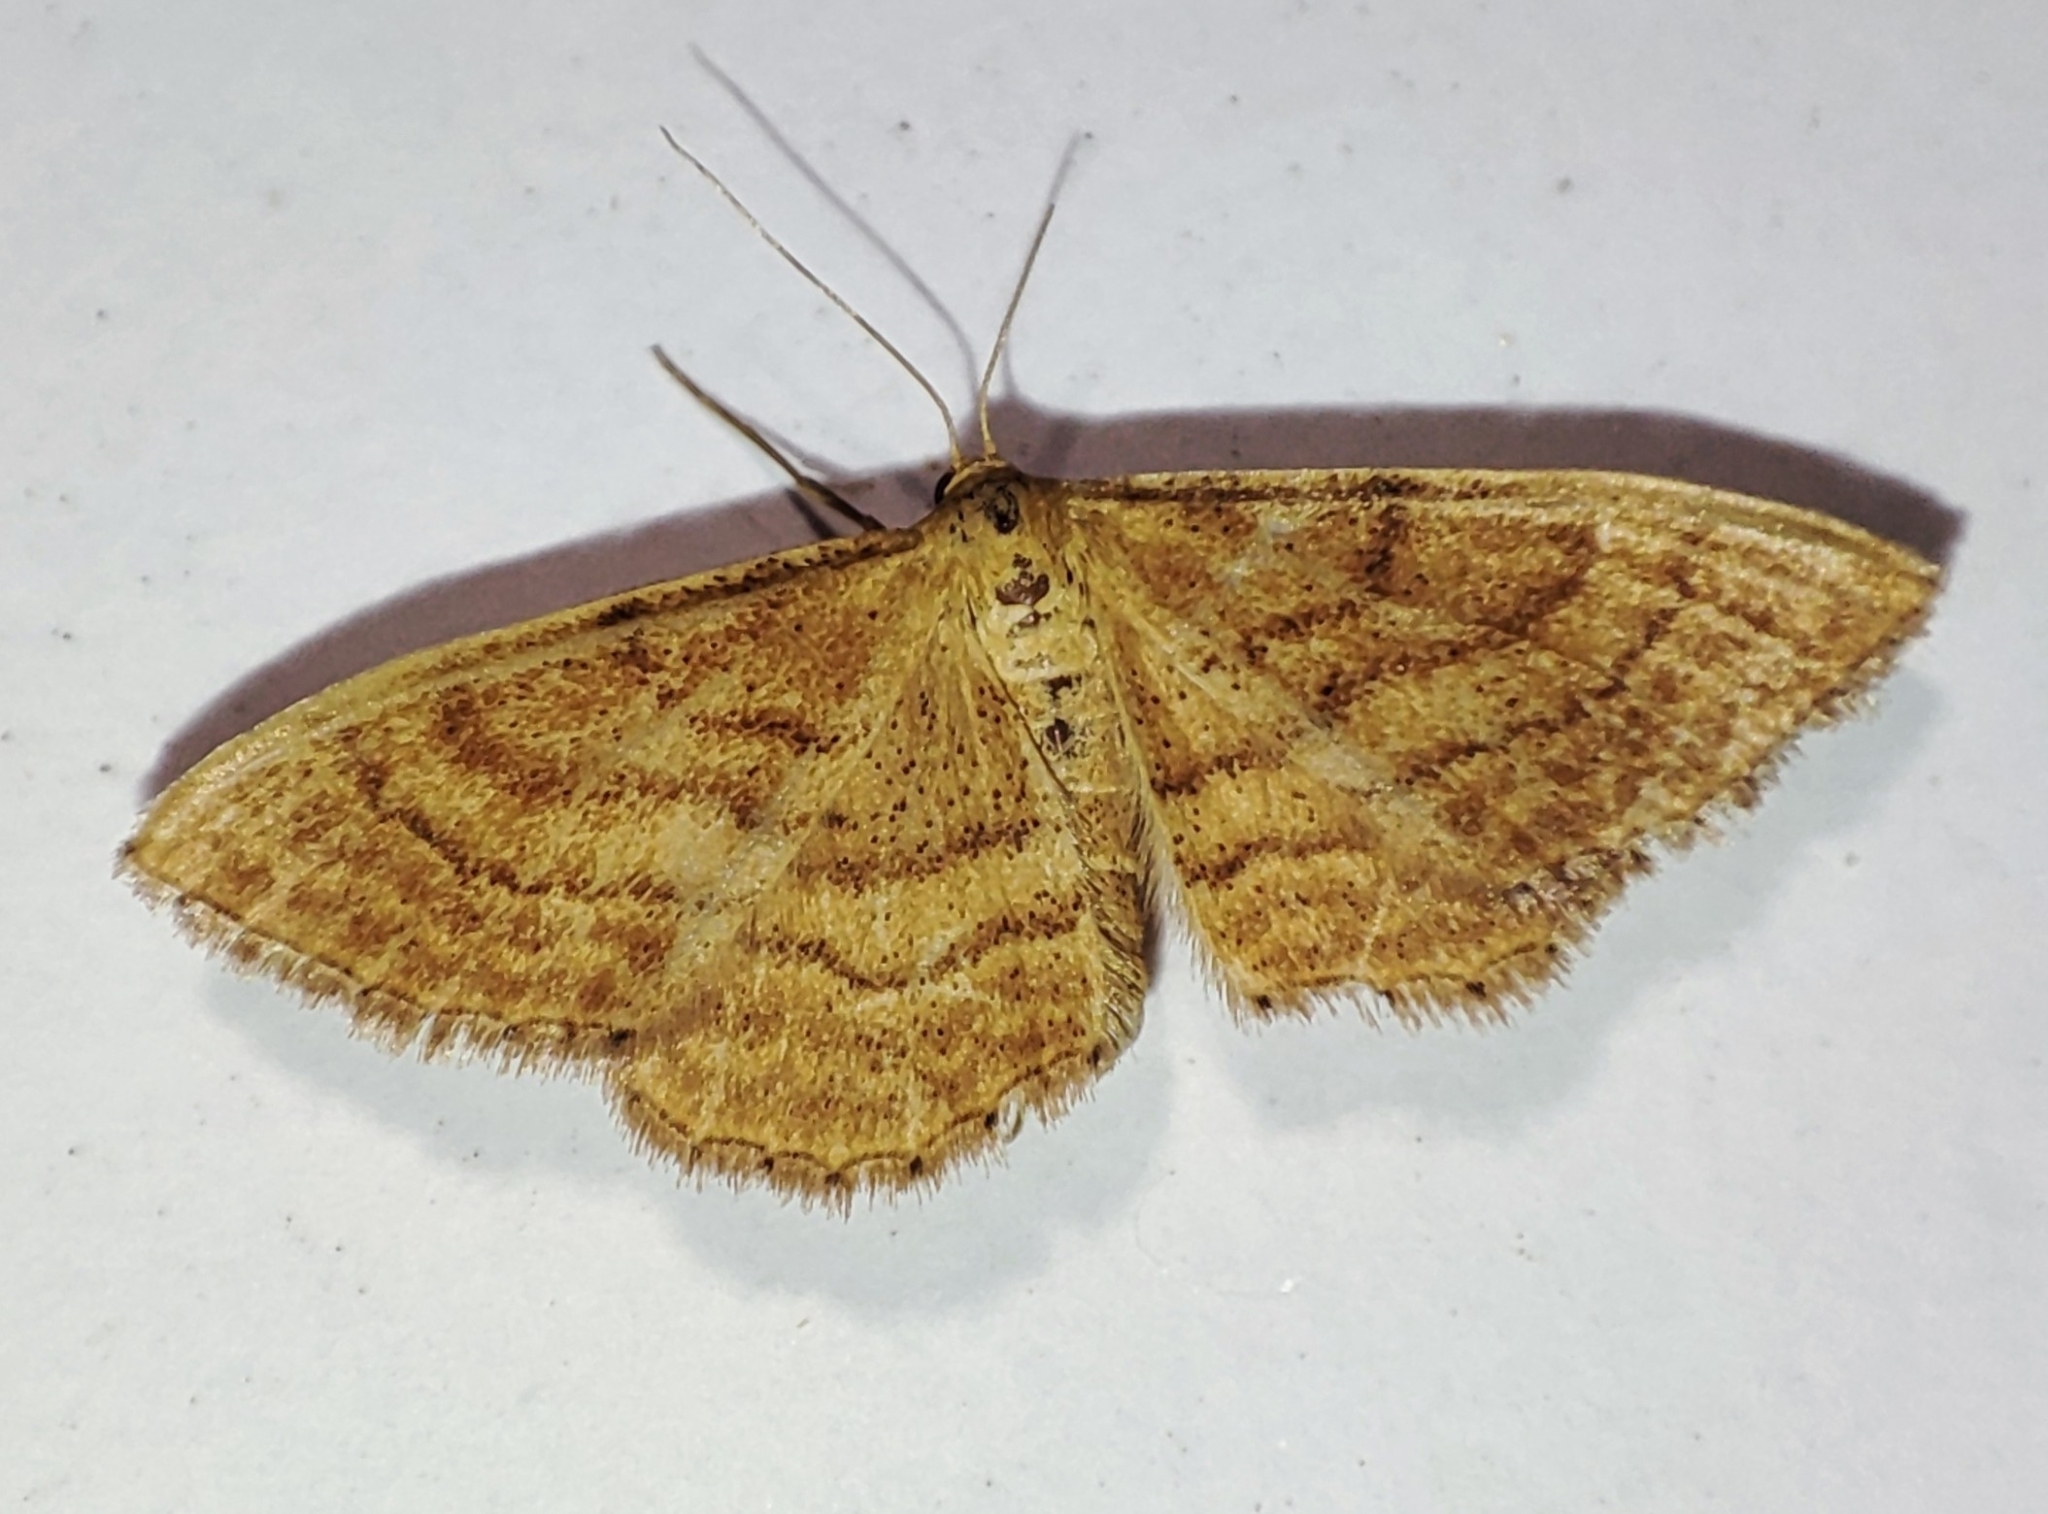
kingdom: Animalia
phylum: Arthropoda
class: Insecta
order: Lepidoptera
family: Geometridae
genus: Idaea
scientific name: Idaea ochrata
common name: Bright wave
